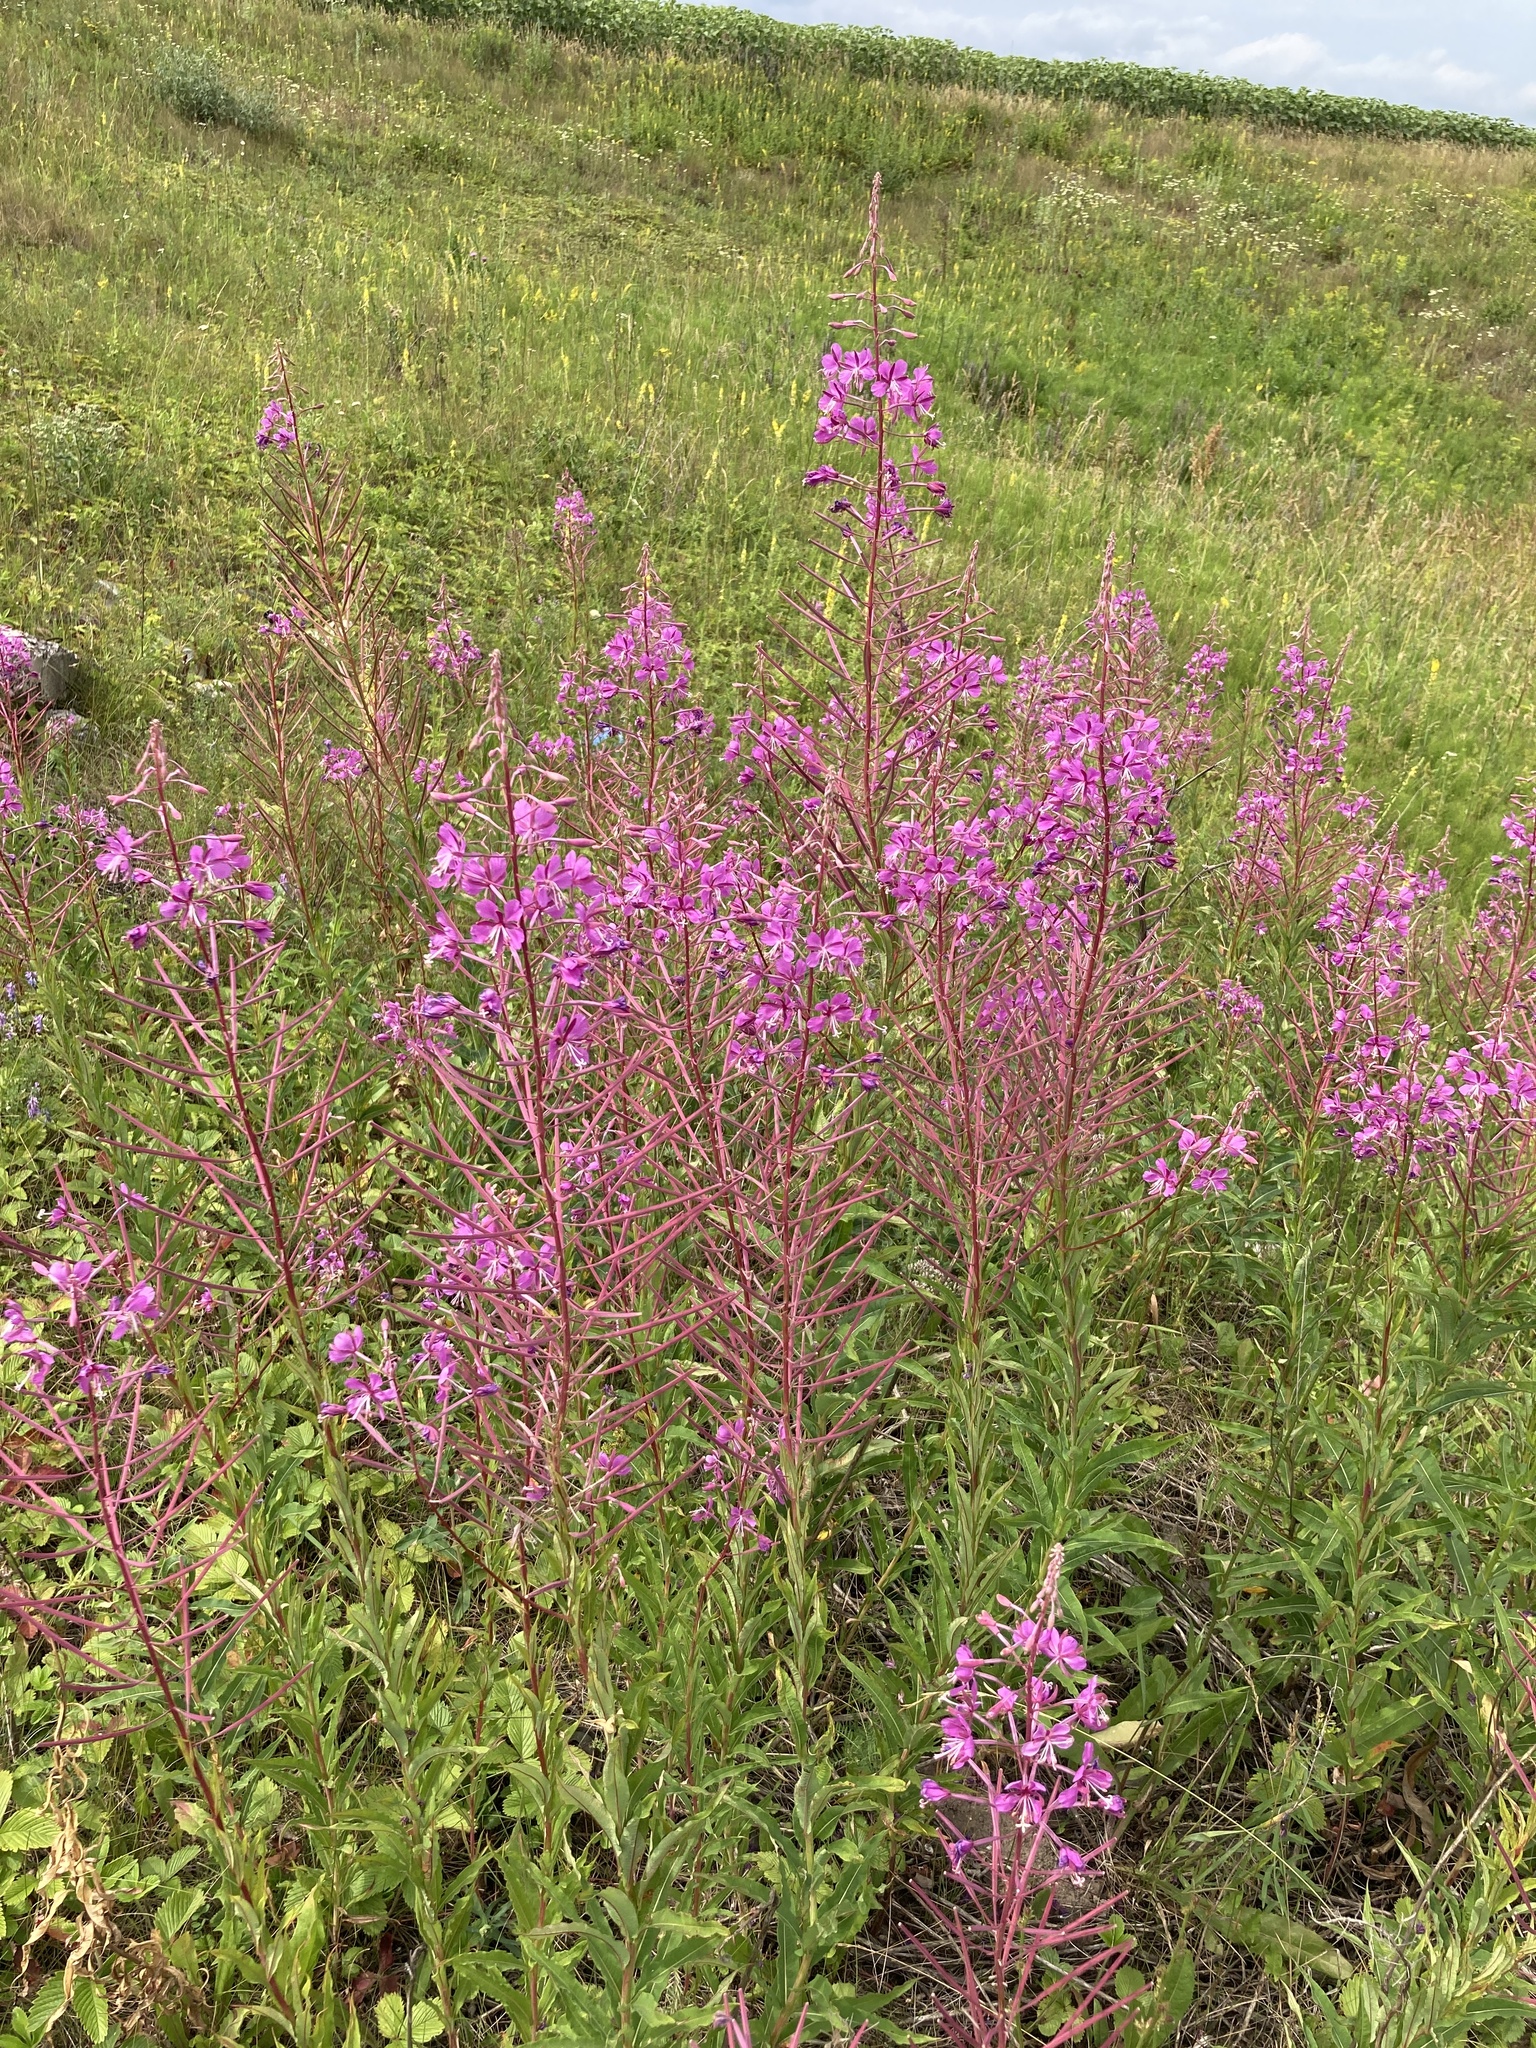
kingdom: Plantae
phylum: Tracheophyta
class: Magnoliopsida
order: Myrtales
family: Onagraceae
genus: Chamaenerion
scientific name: Chamaenerion angustifolium
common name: Fireweed
